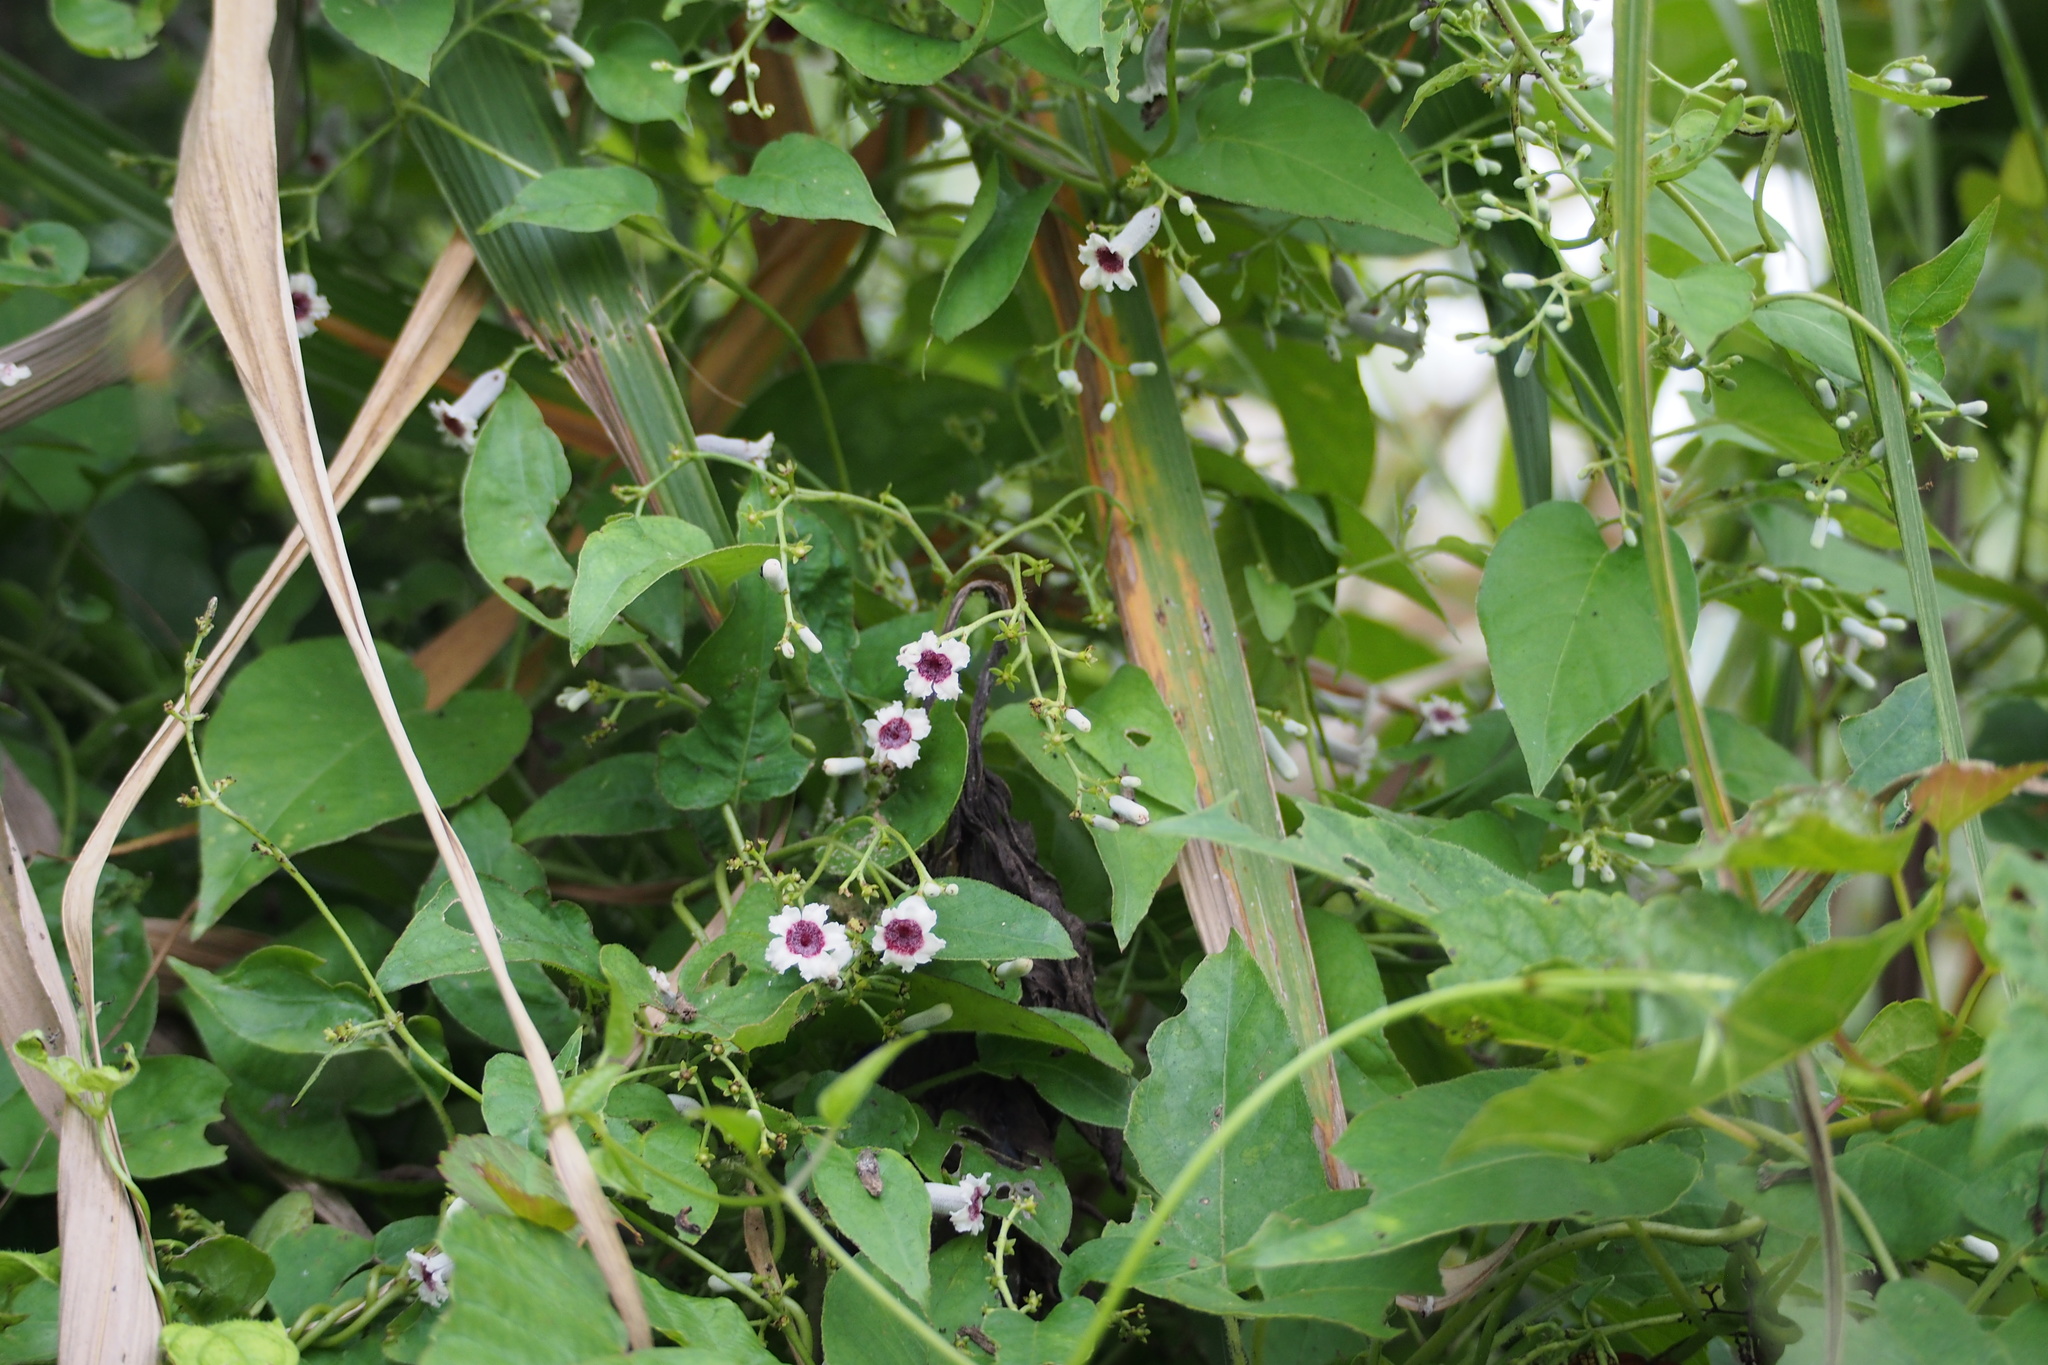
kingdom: Plantae
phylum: Tracheophyta
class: Magnoliopsida
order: Gentianales
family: Rubiaceae
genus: Paederia
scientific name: Paederia foetida
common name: Stinkvine
